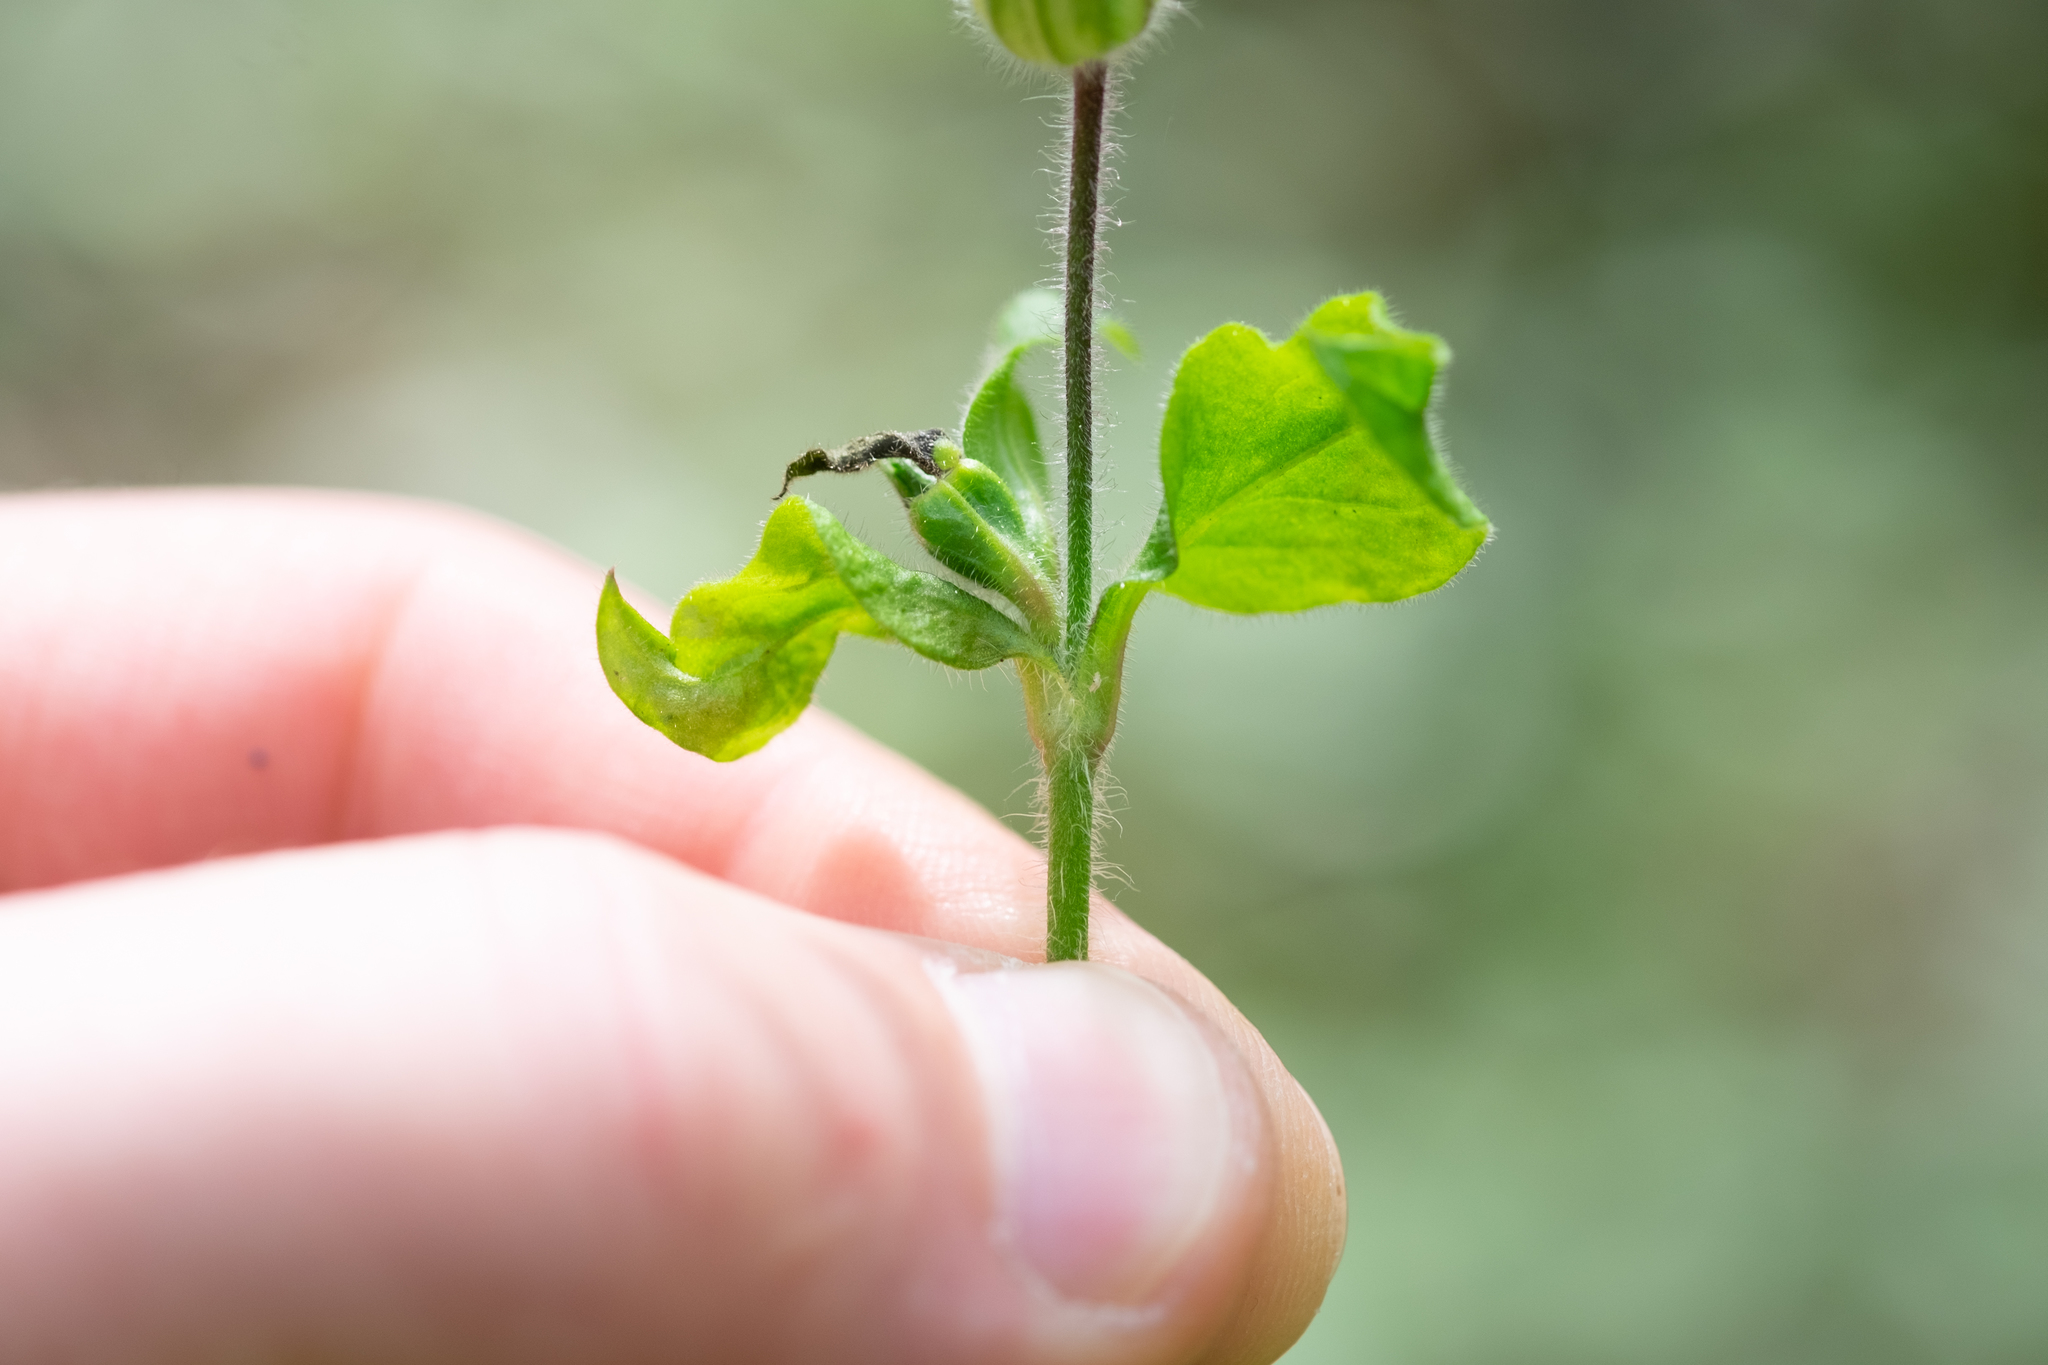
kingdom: Plantae
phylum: Tracheophyta
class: Magnoliopsida
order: Caryophyllales
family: Caryophyllaceae
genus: Silene
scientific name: Silene dioica
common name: Red campion
